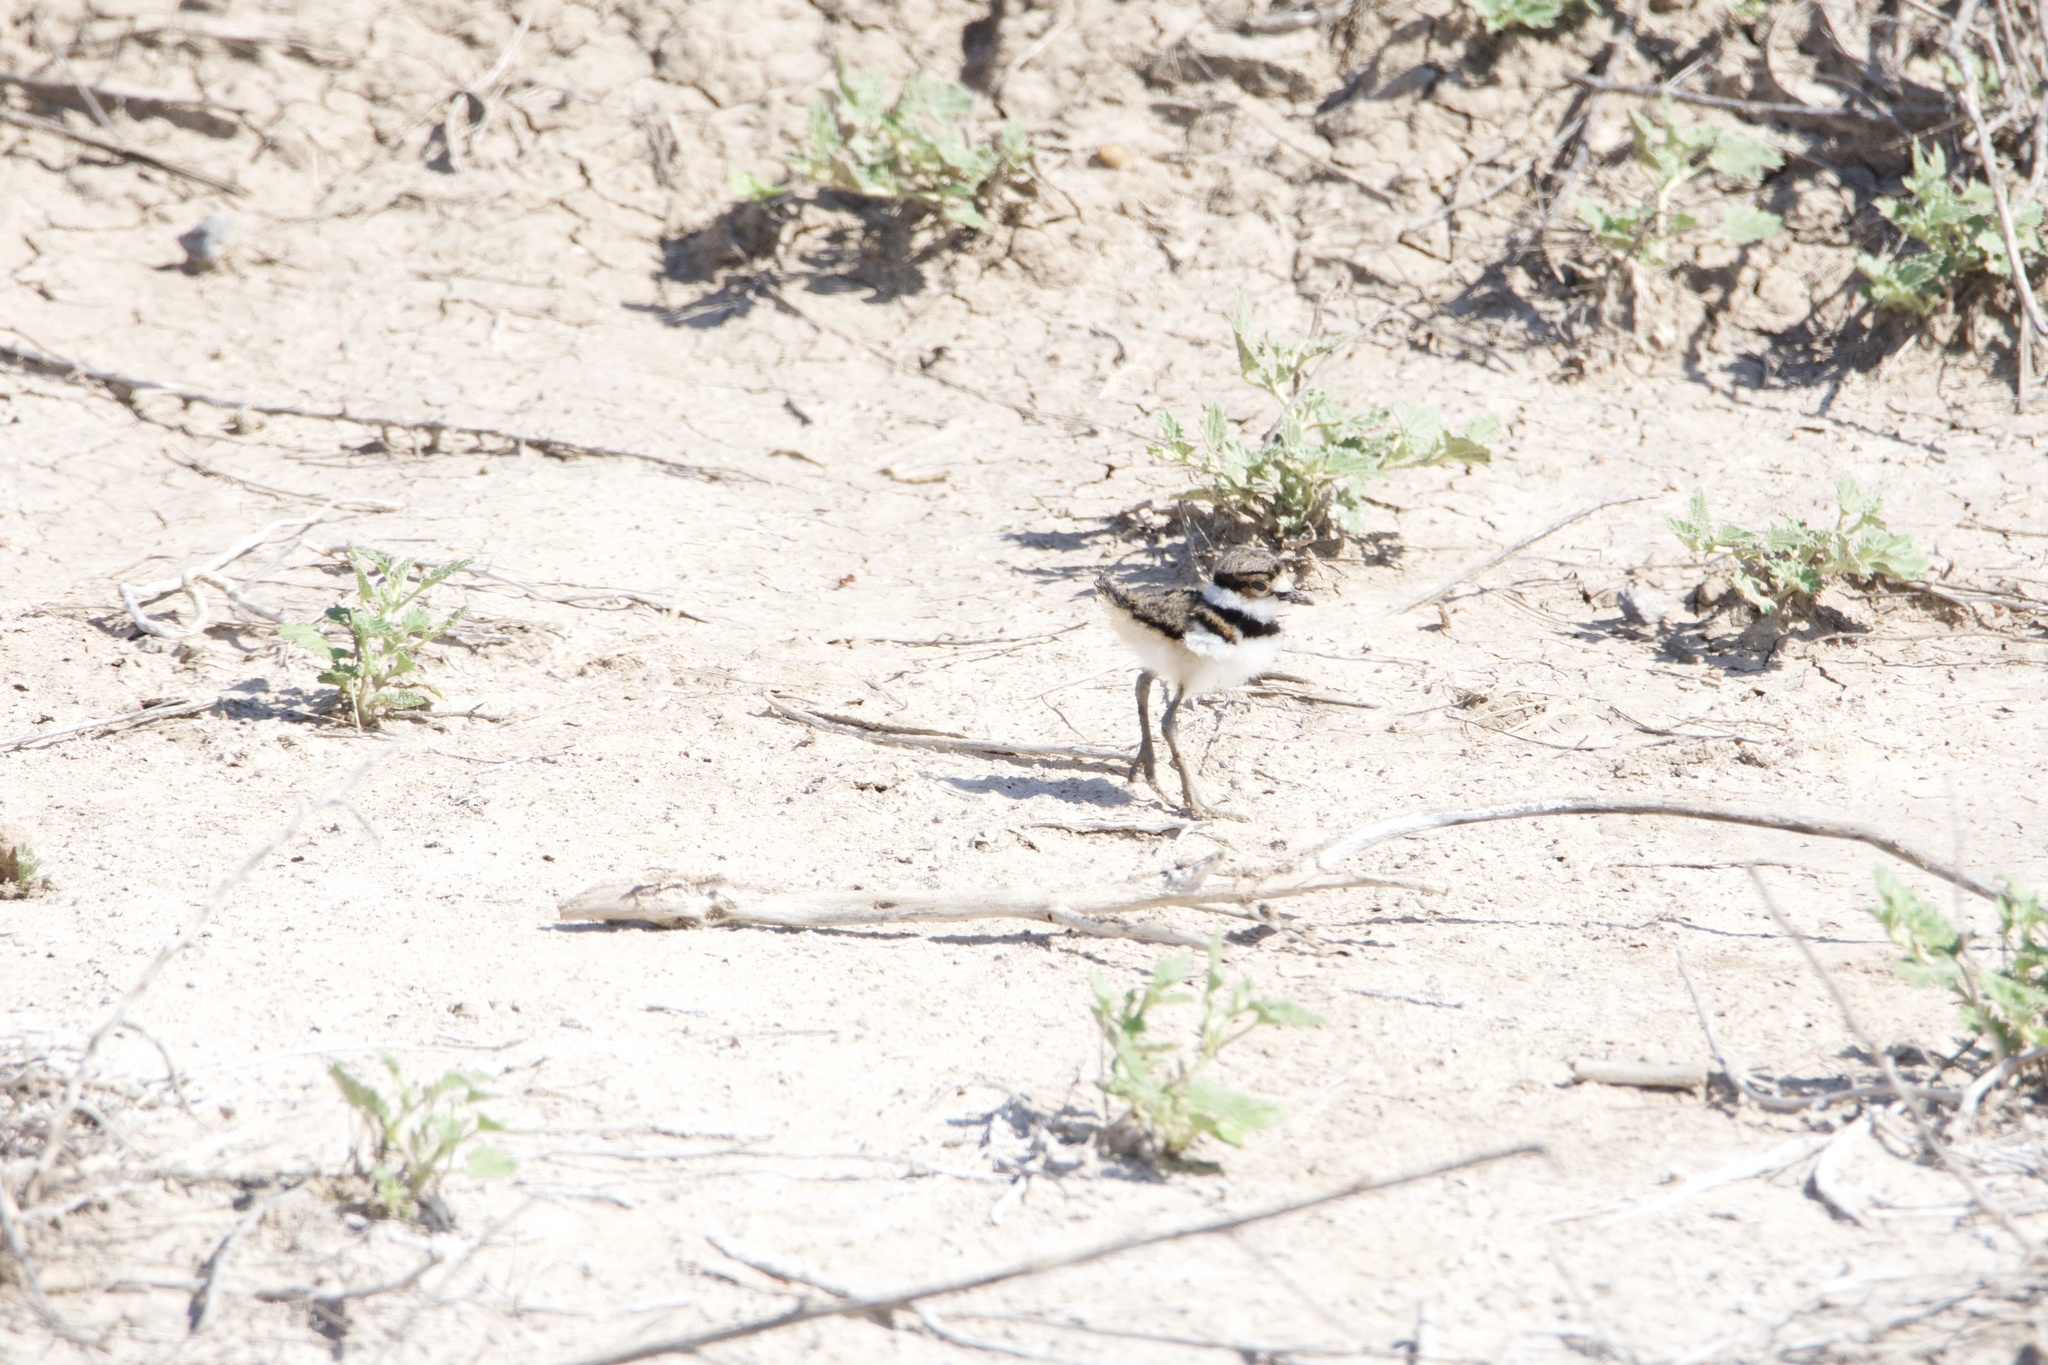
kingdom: Animalia
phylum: Chordata
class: Aves
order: Charadriiformes
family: Charadriidae
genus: Charadrius
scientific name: Charadrius vociferus
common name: Killdeer
